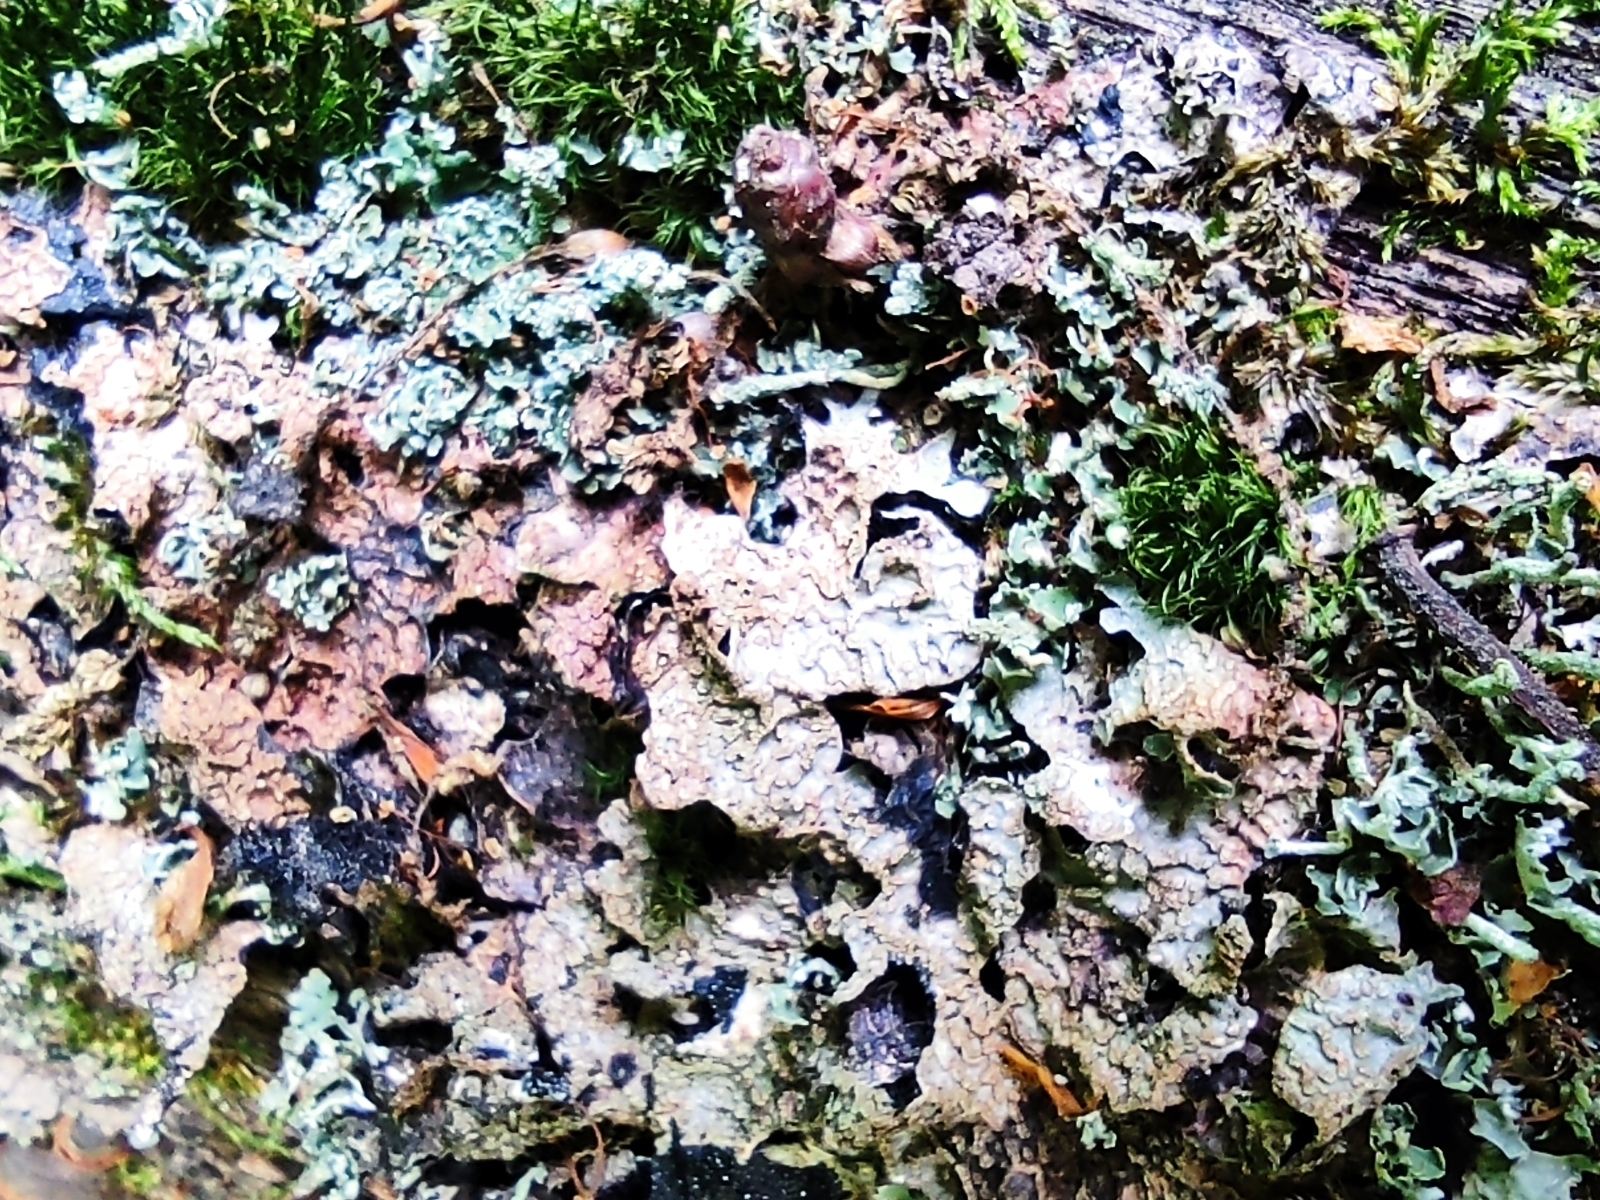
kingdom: Fungi
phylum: Ascomycota
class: Lecanoromycetes
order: Lecanorales
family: Parmeliaceae
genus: Parmelia
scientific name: Parmelia sulcata
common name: Netted shield lichen
